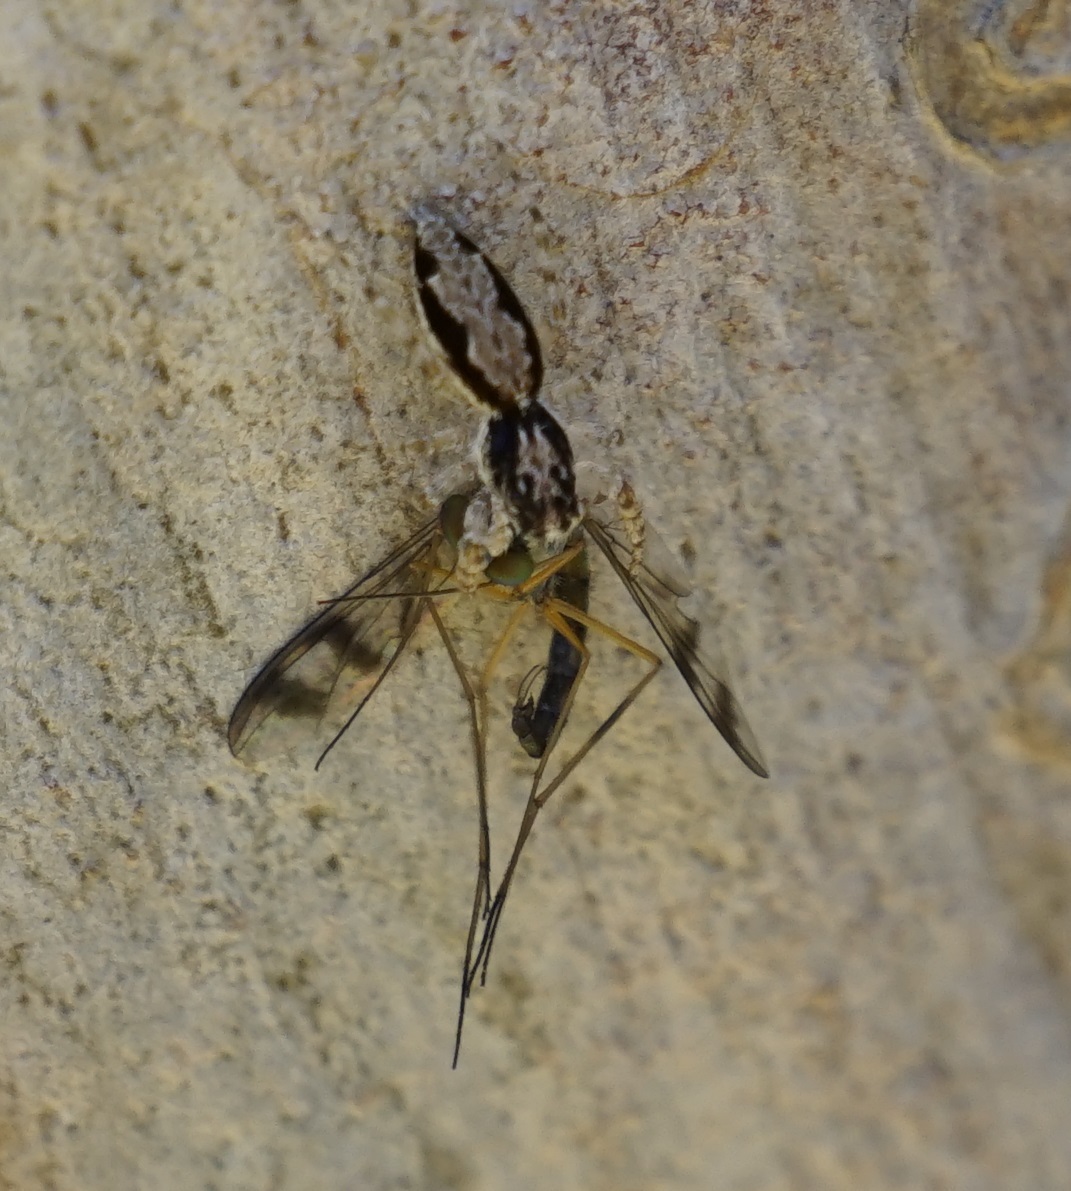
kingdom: Animalia
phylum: Arthropoda
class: Arachnida
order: Araneae
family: Salticidae
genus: Apricia
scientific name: Apricia bracteata
